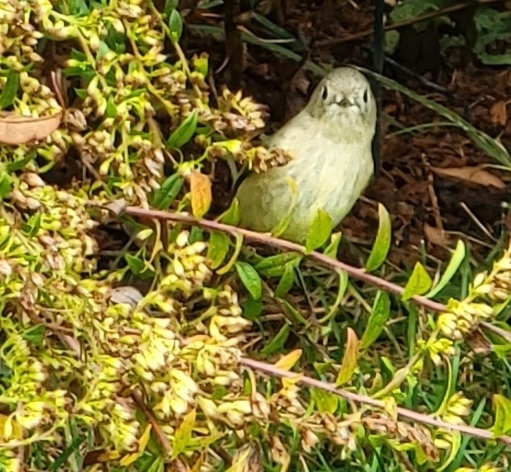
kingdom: Animalia
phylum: Chordata
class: Aves
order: Passeriformes
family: Regulidae
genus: Regulus
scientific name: Regulus calendula
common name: Ruby-crowned kinglet
